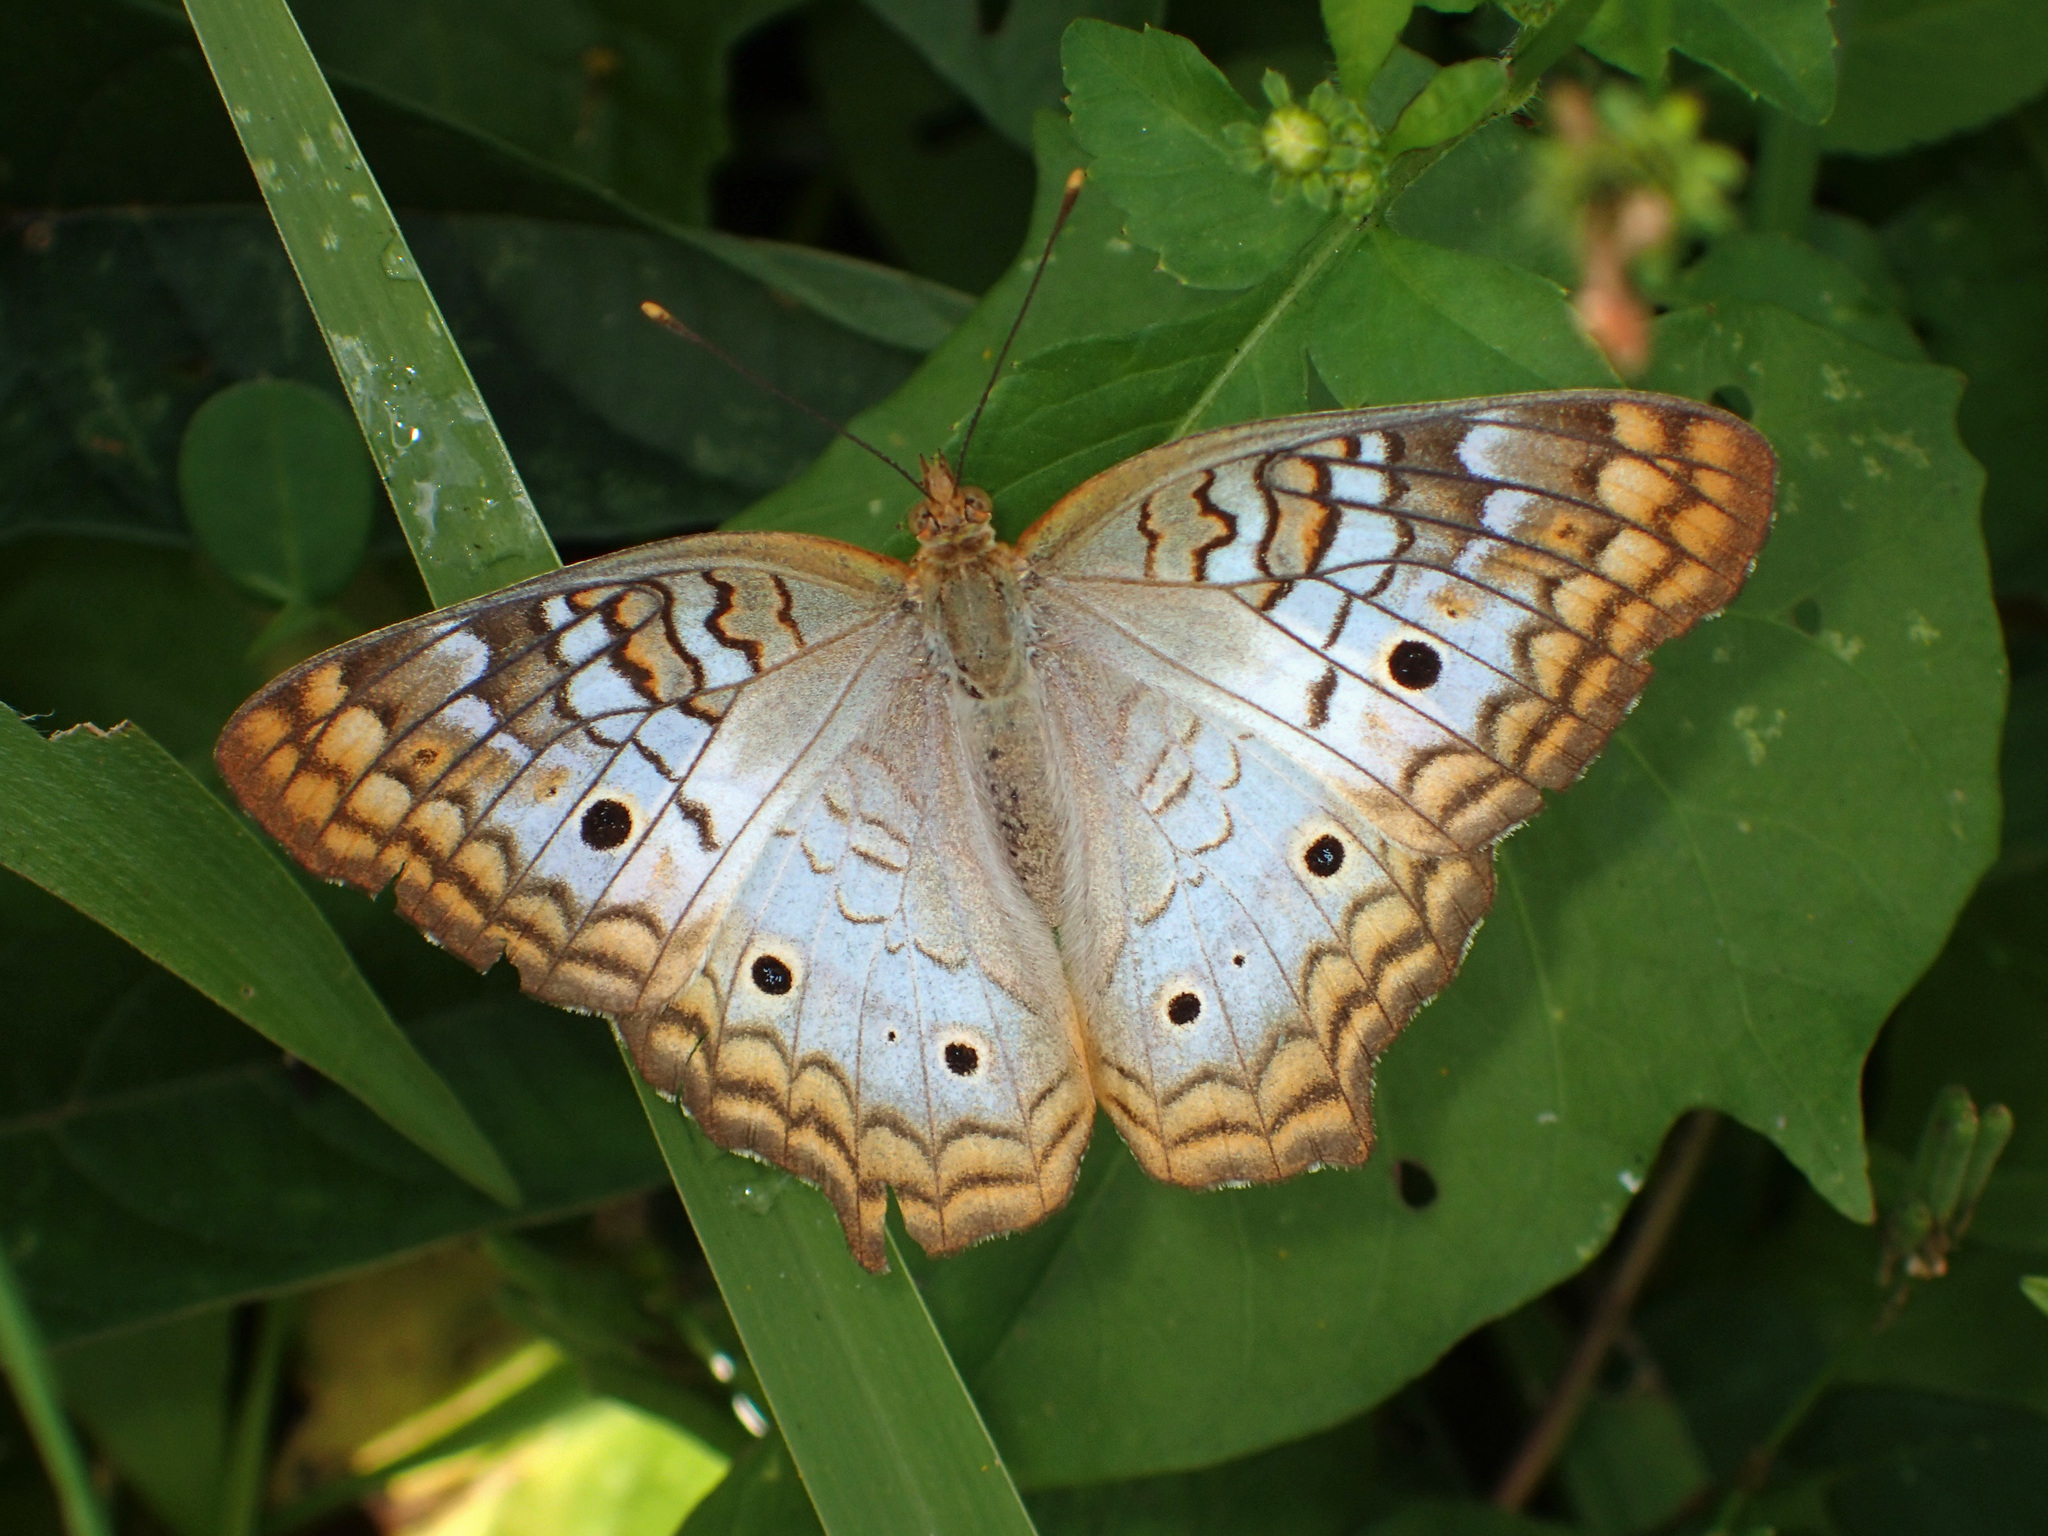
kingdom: Animalia
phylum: Arthropoda
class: Insecta
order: Lepidoptera
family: Nymphalidae
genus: Anartia
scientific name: Anartia jatrophae
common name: White peacock
